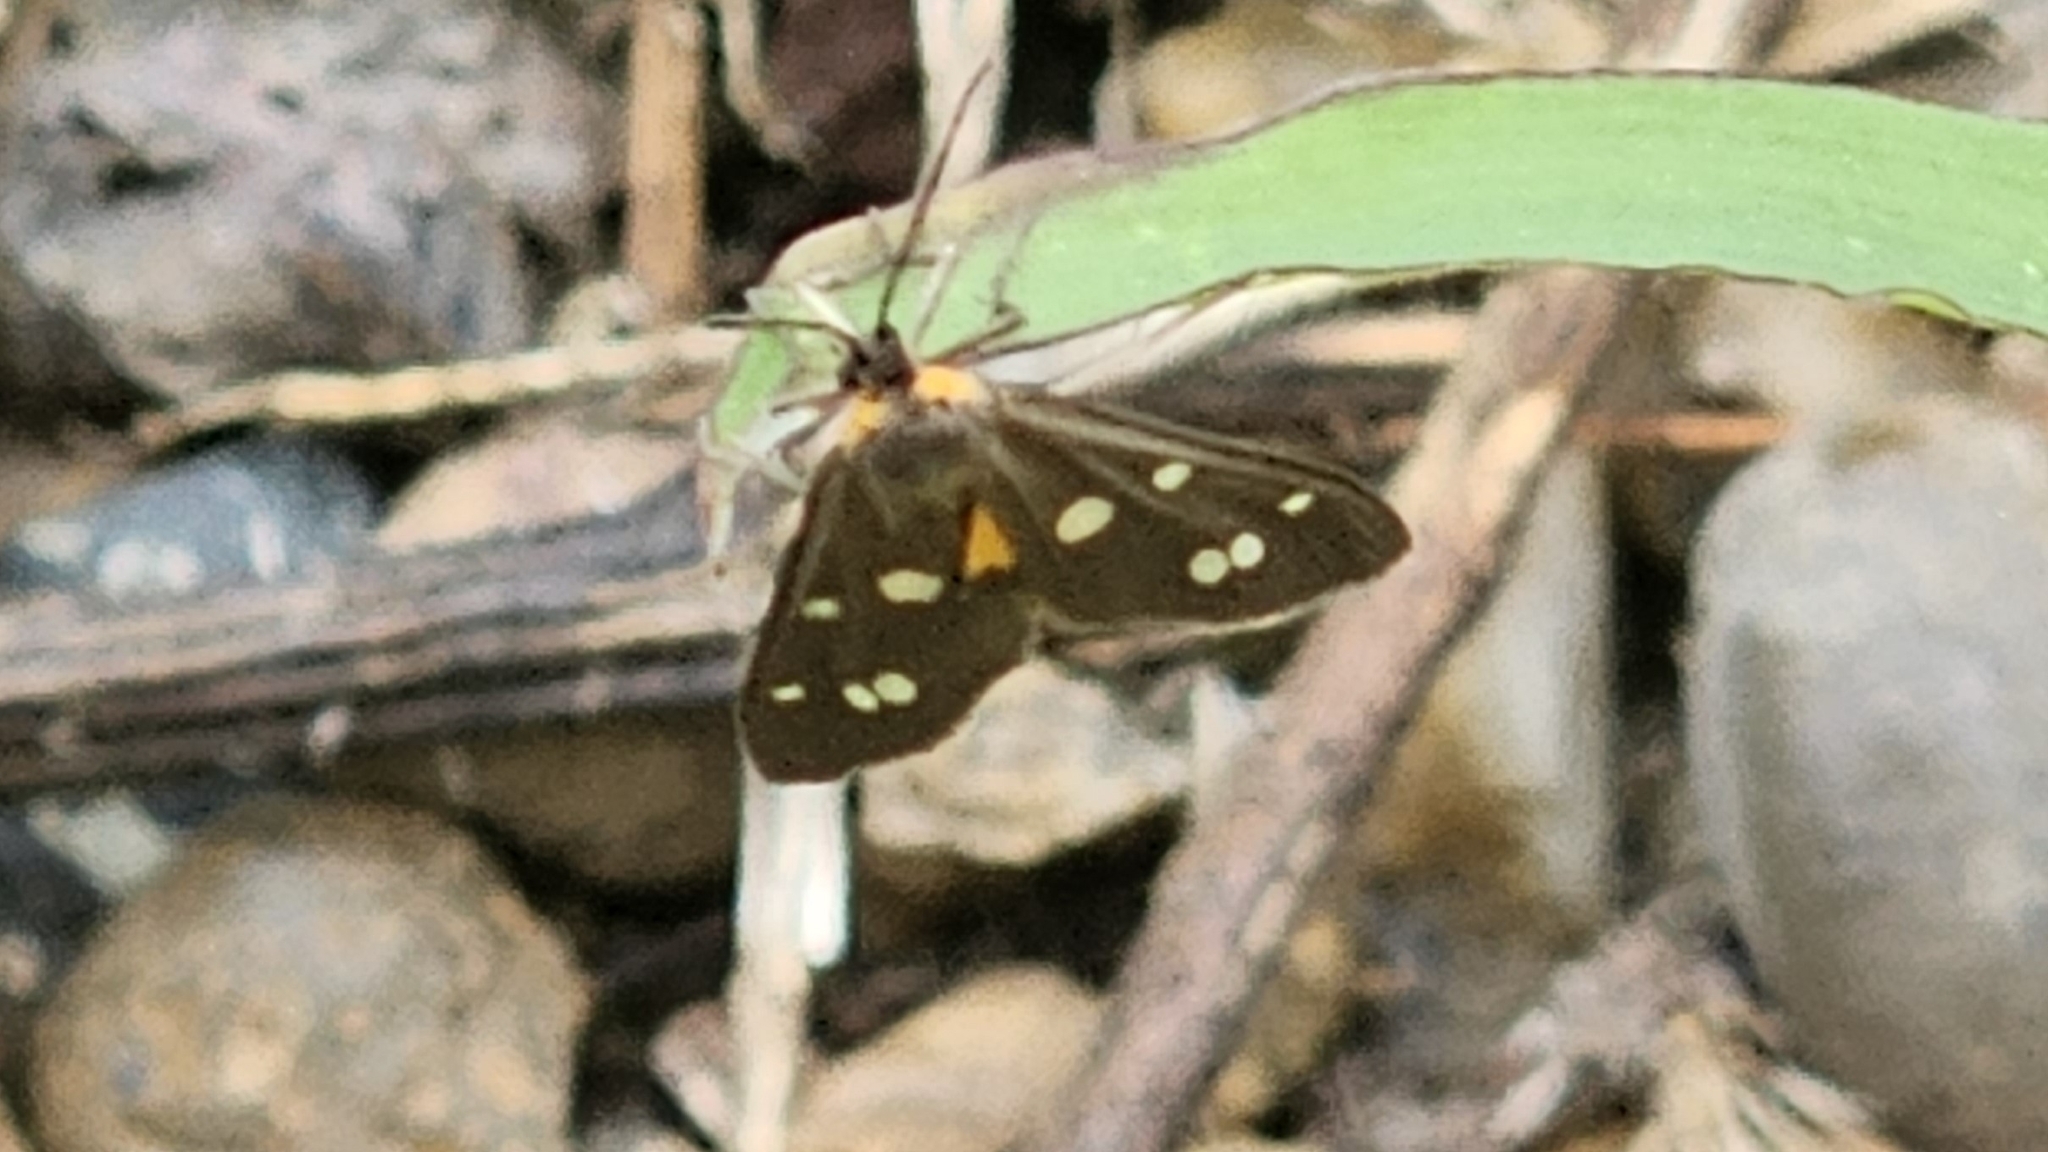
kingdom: Animalia
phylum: Arthropoda
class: Insecta
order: Lepidoptera
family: Erebidae
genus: Dysauxes
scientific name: Dysauxes punctata
